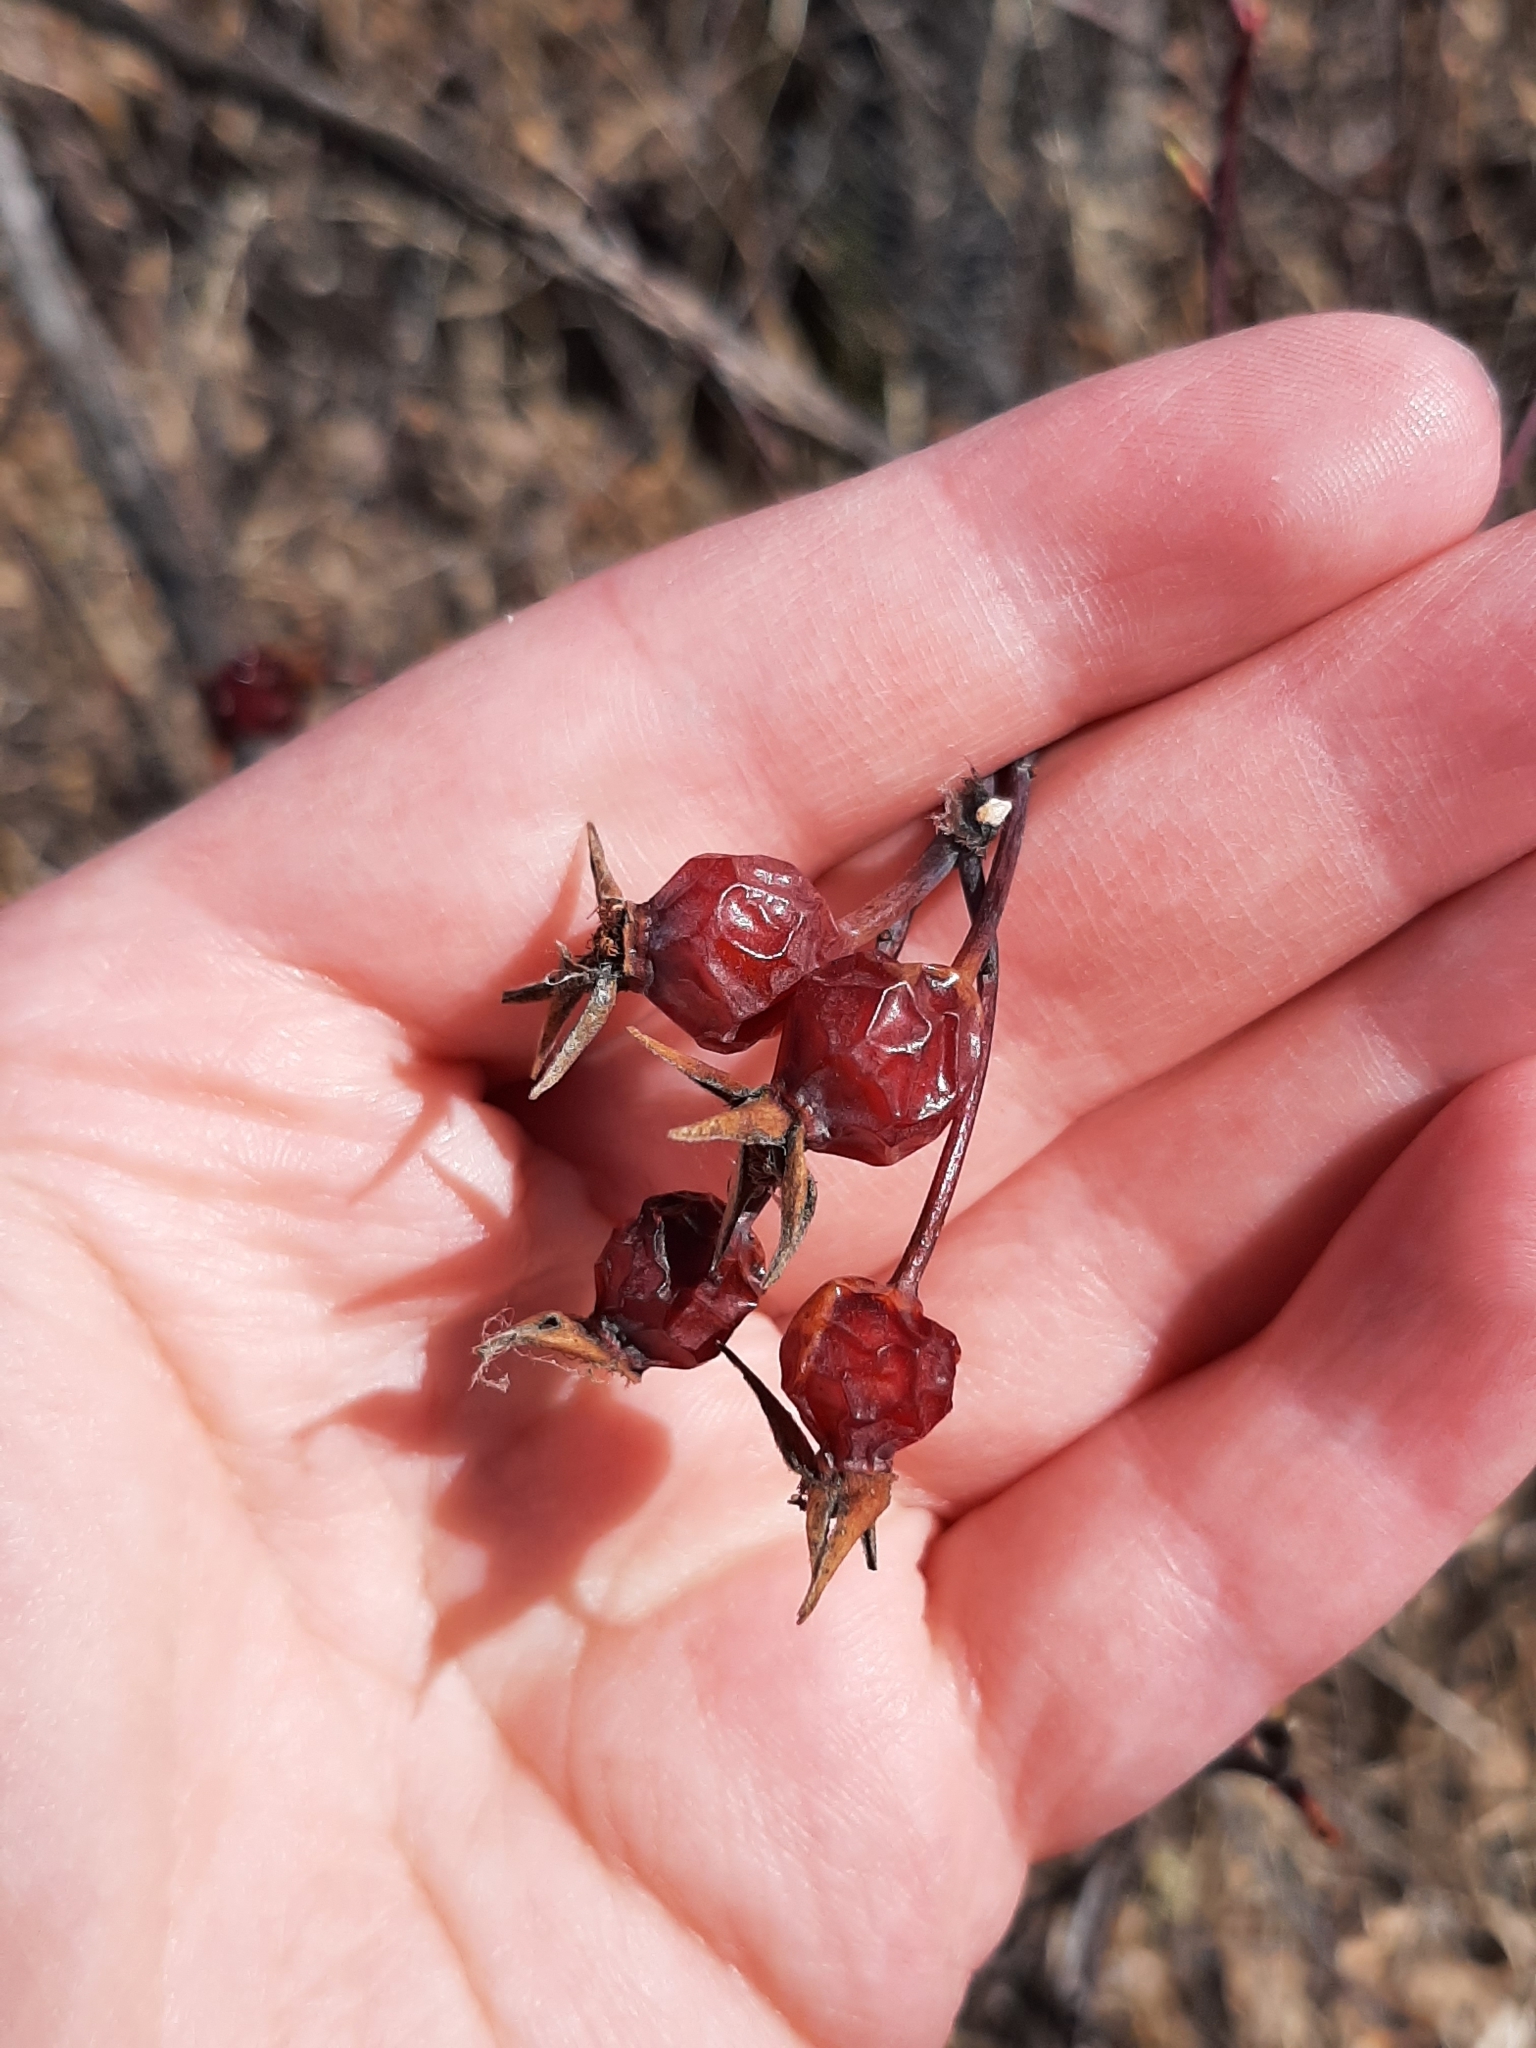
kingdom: Plantae
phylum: Tracheophyta
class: Magnoliopsida
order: Rosales
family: Rosaceae
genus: Rosa
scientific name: Rosa woodsii
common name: Woods's rose
